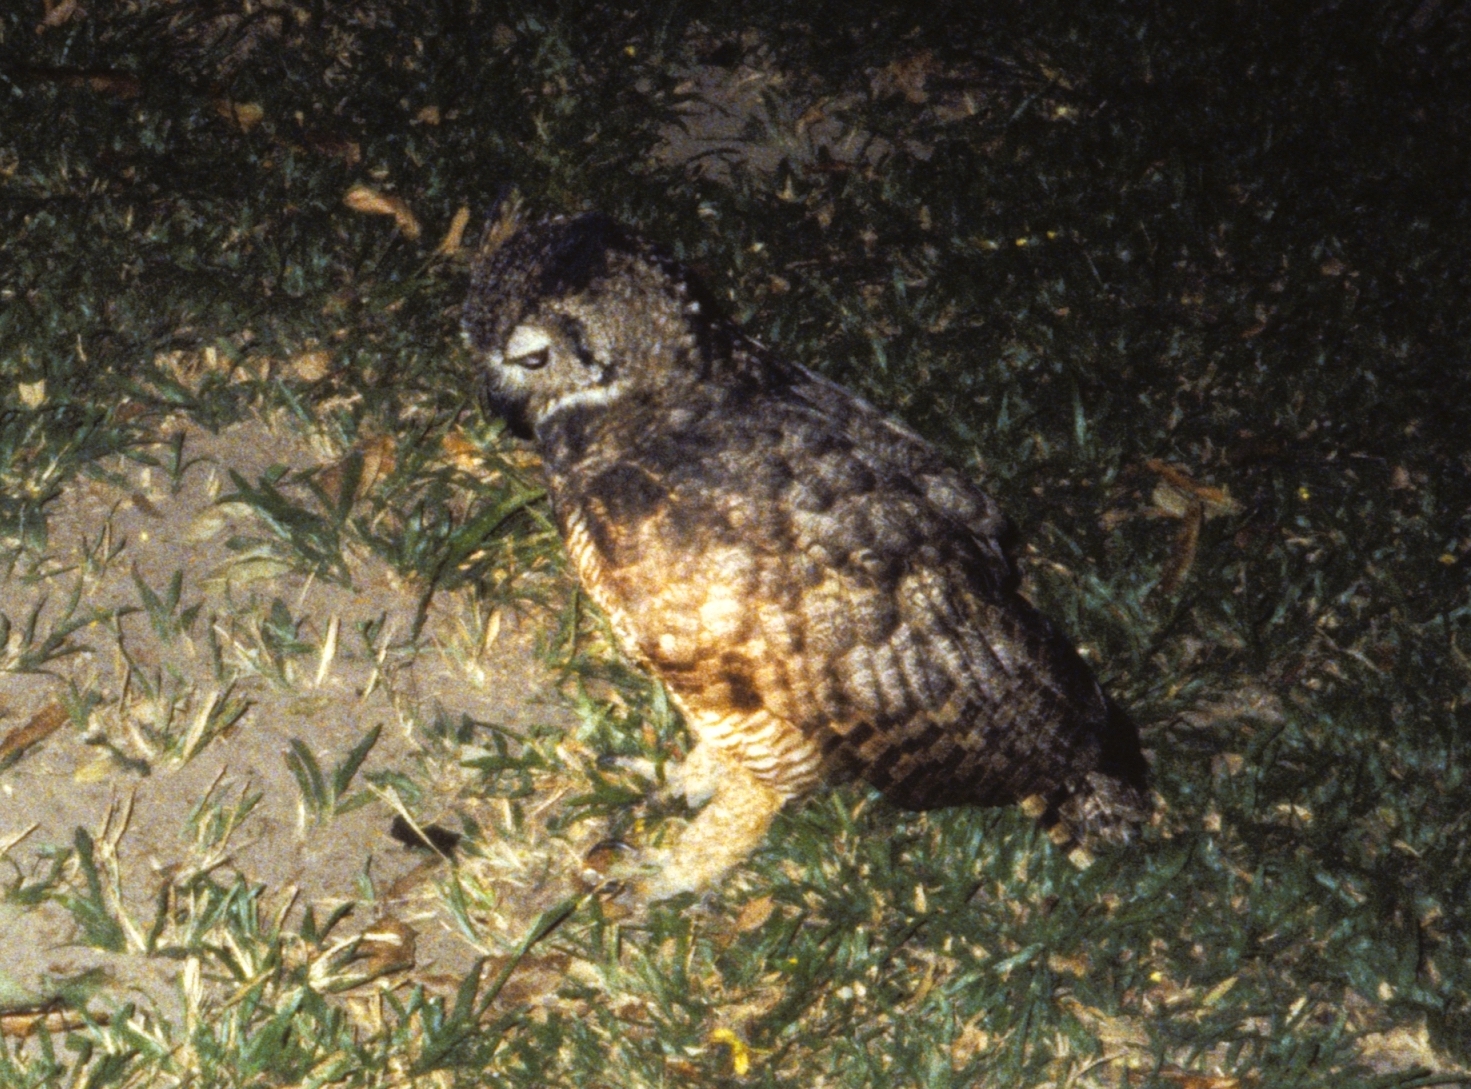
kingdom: Animalia
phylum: Chordata
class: Aves
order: Strigiformes
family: Strigidae
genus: Bubo
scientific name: Bubo virginianus
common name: Great horned owl
